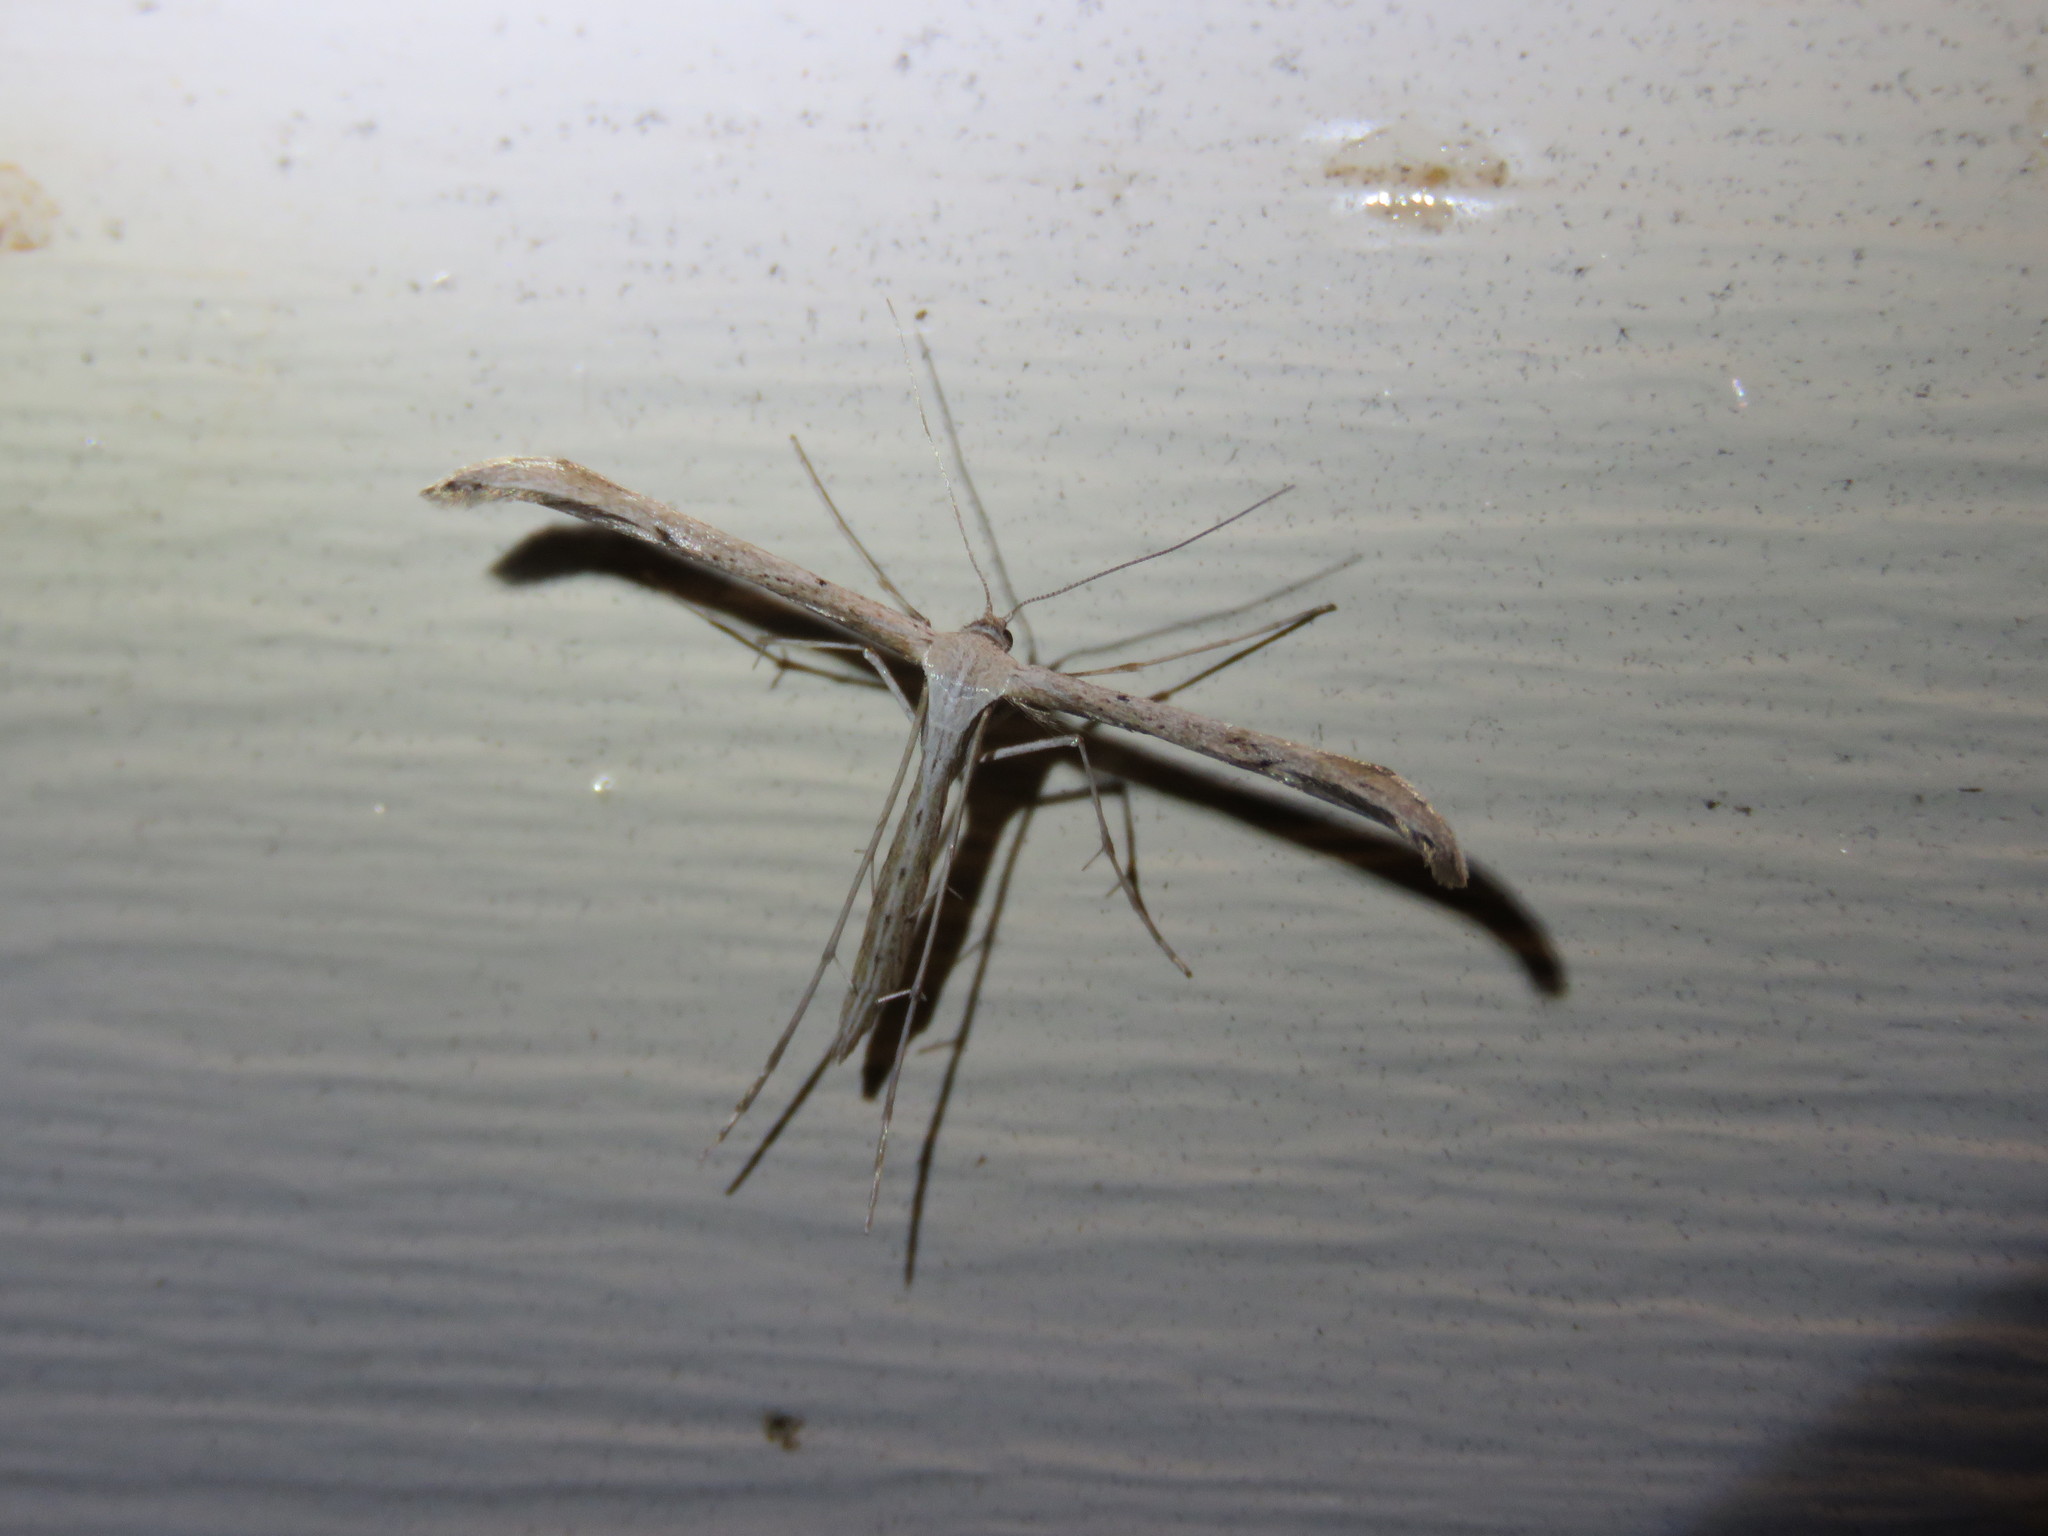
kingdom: Animalia
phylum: Arthropoda
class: Insecta
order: Lepidoptera
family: Pterophoridae
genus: Emmelina
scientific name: Emmelina monodactyla
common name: Common plume
